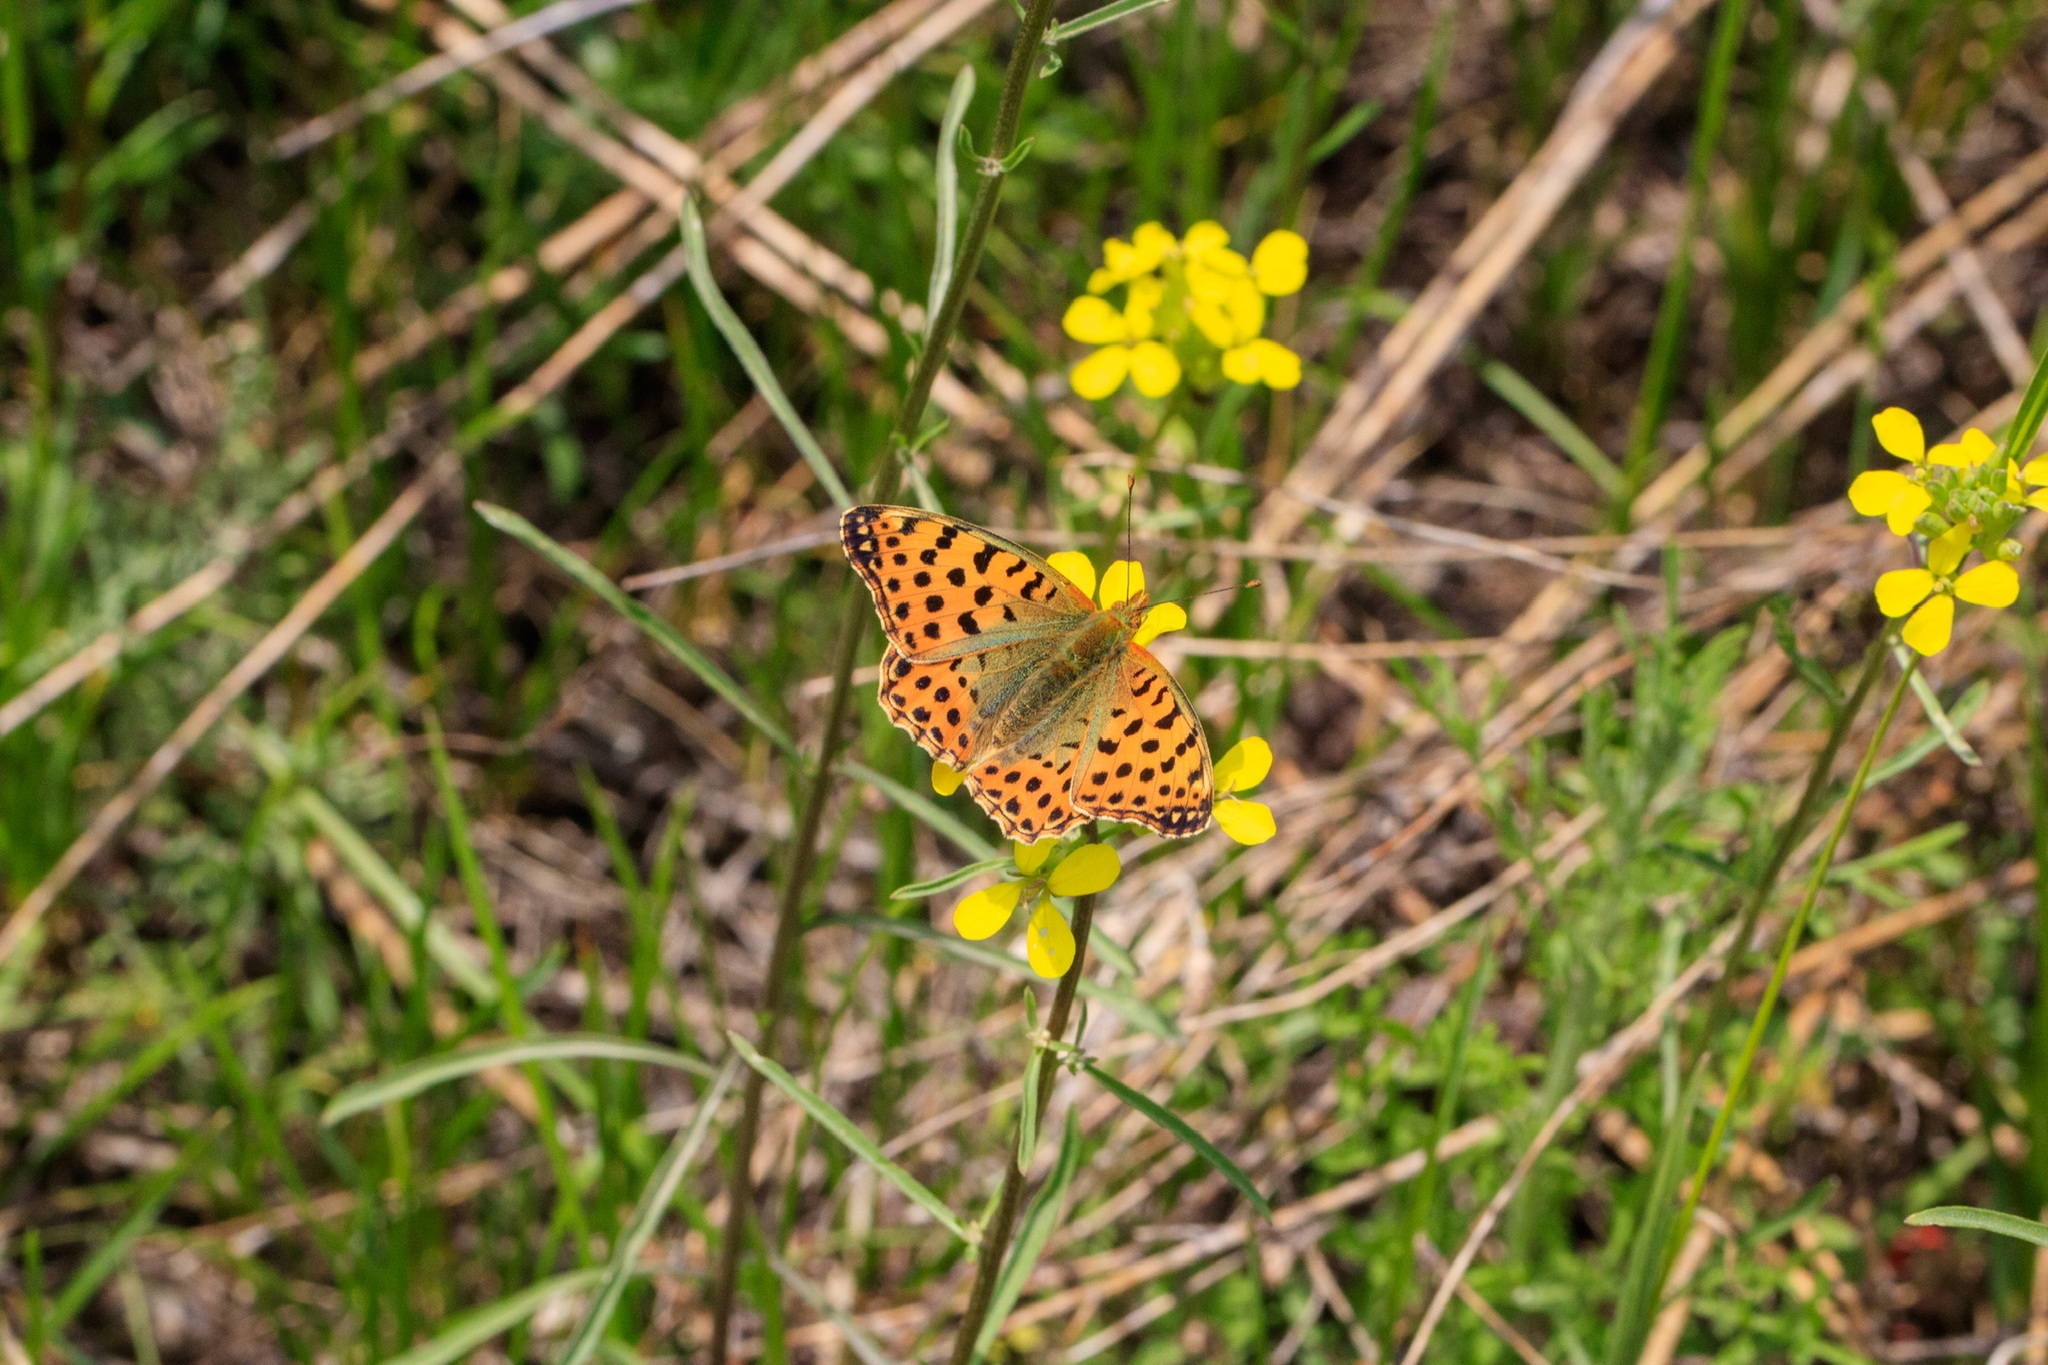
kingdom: Animalia
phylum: Arthropoda
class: Insecta
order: Lepidoptera
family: Nymphalidae
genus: Issoria
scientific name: Issoria lathonia
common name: Queen of spain fritillary
